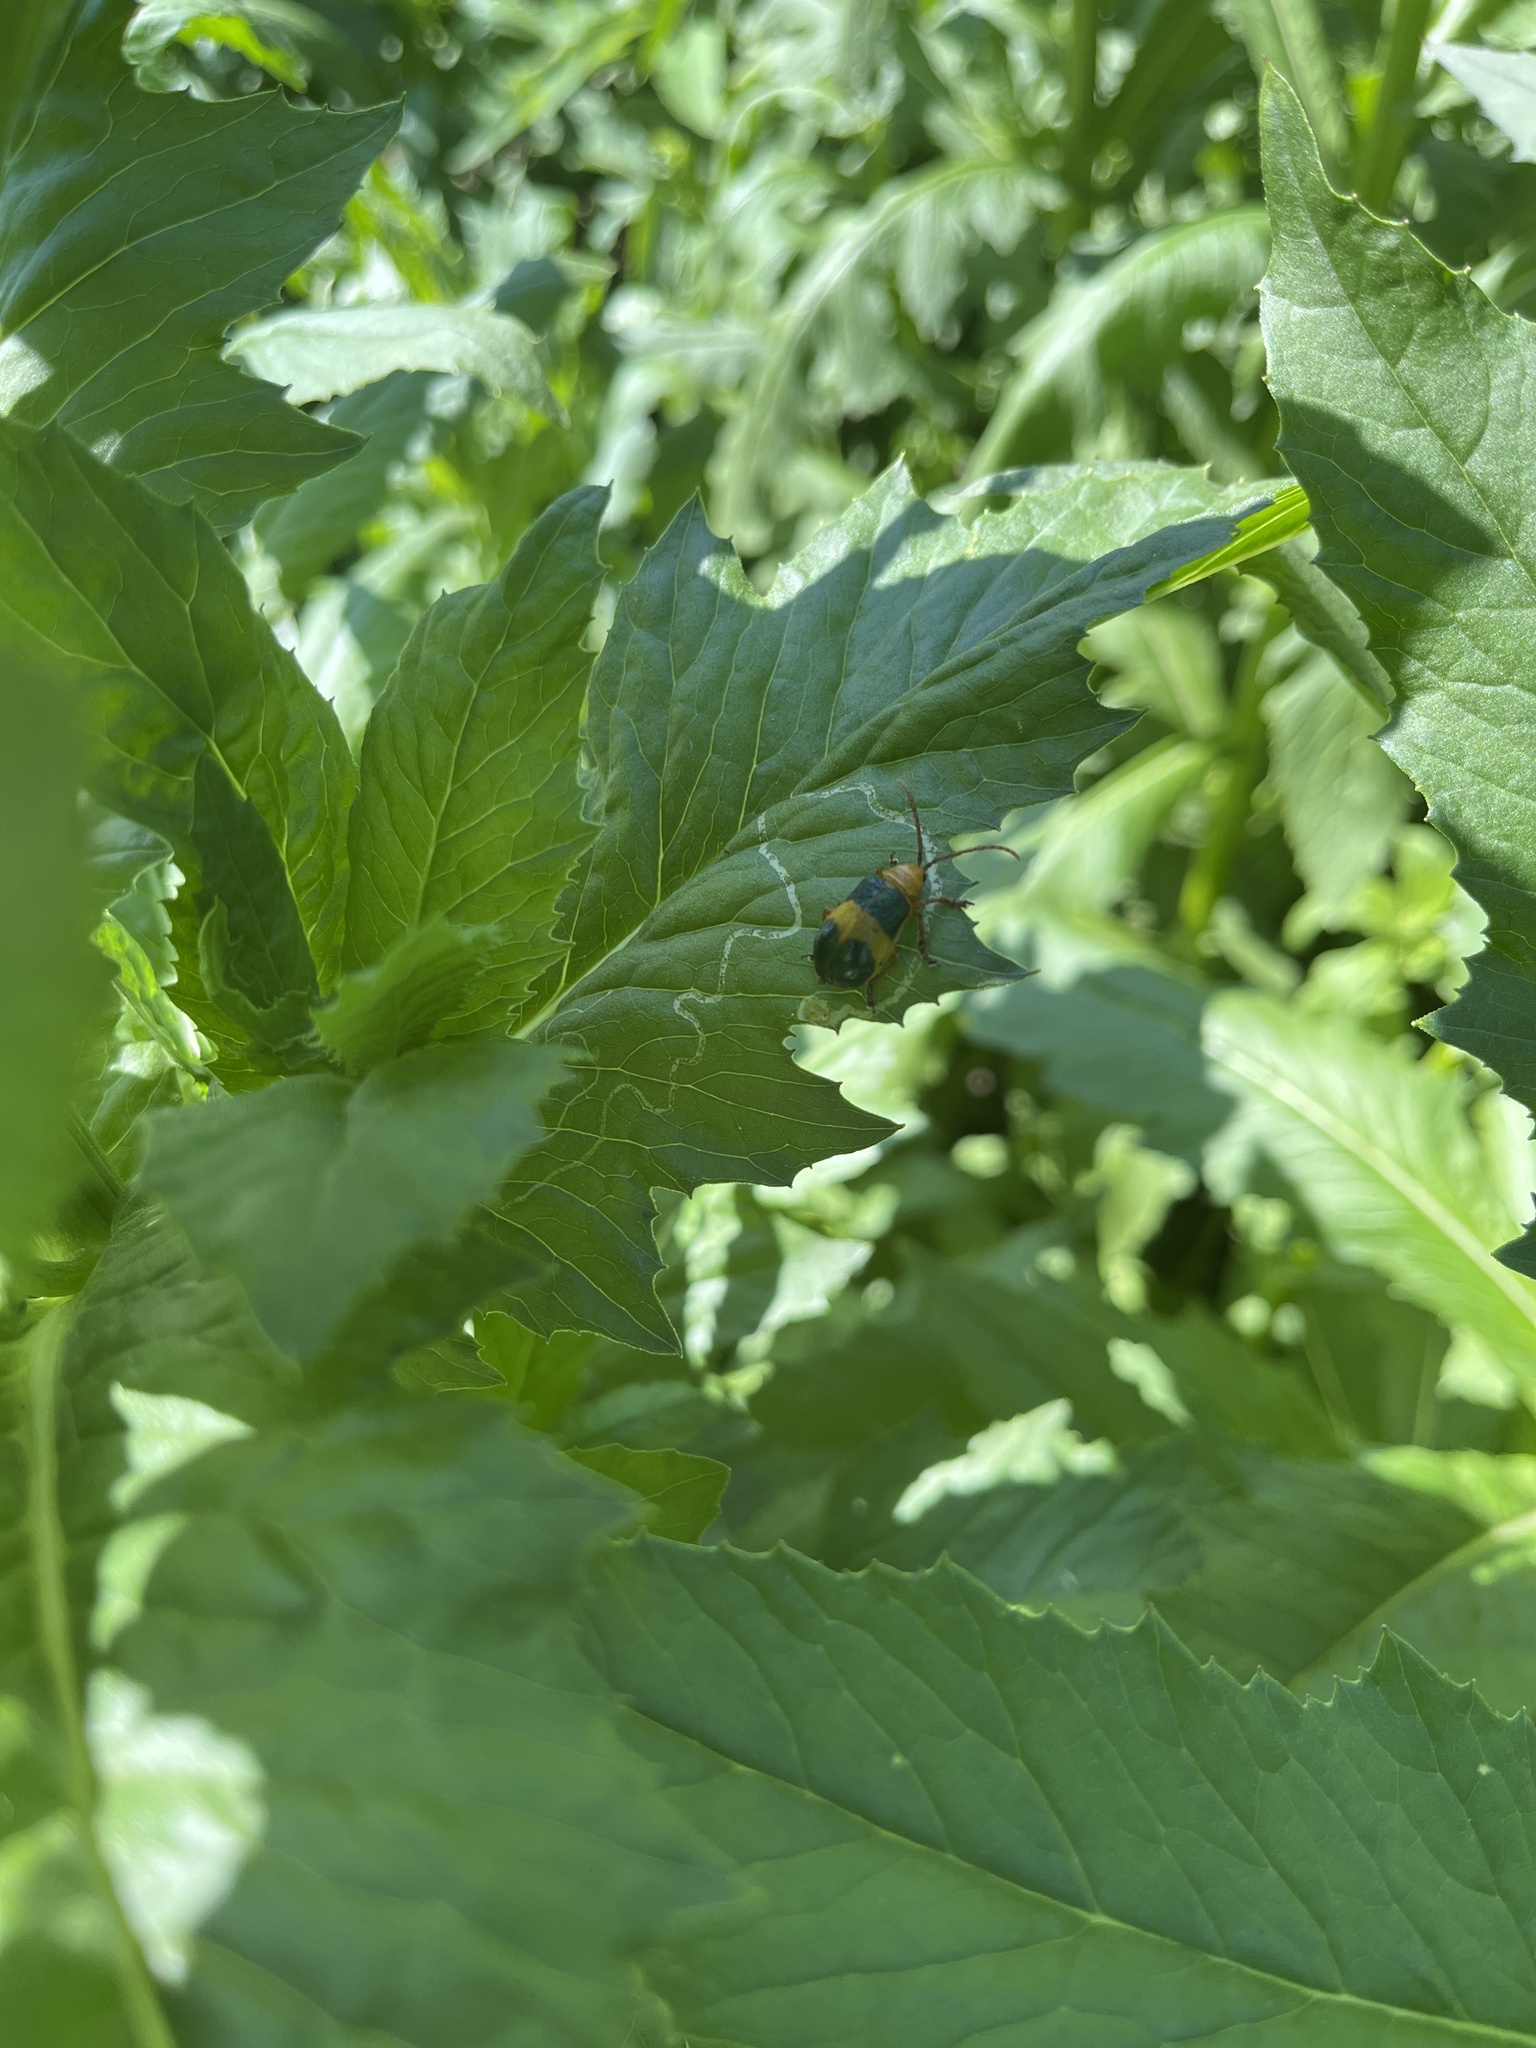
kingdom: Animalia
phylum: Arthropoda
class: Insecta
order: Coleoptera
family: Chrysomelidae
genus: Monocesta
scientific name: Monocesta coryli
